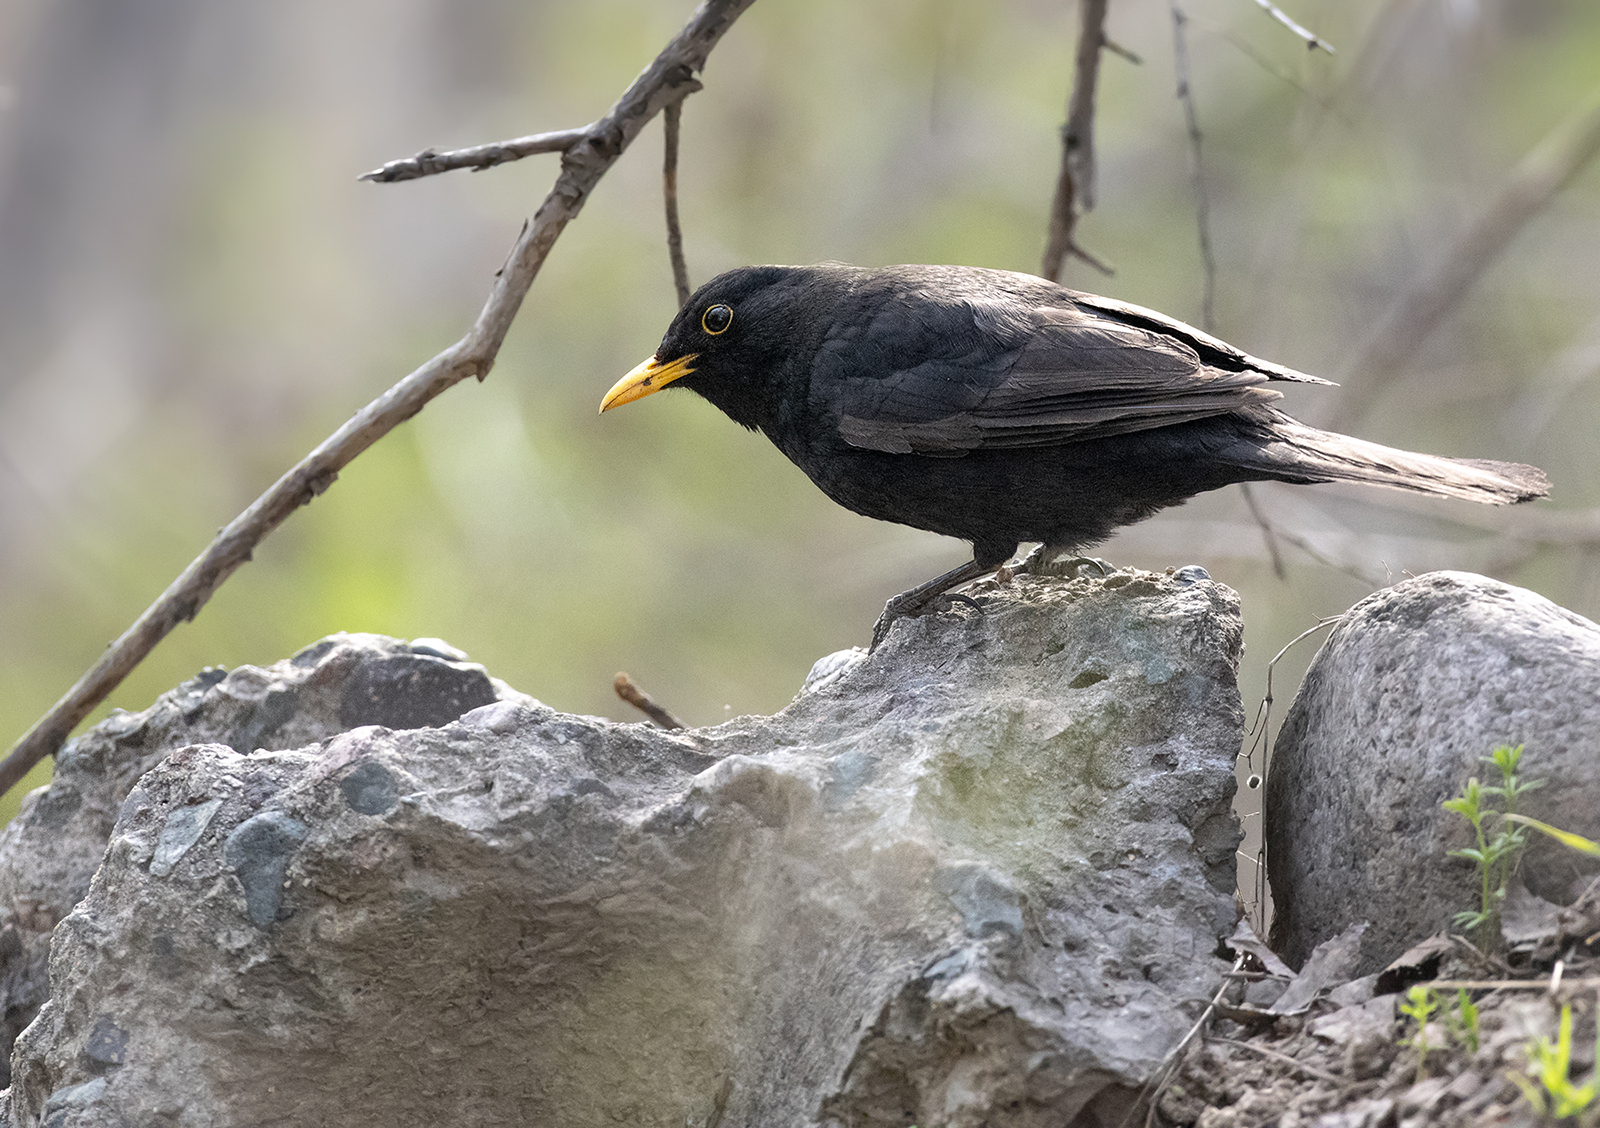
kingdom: Animalia
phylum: Chordata
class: Aves
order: Passeriformes
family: Turdidae
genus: Turdus
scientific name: Turdus merula
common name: Common blackbird
